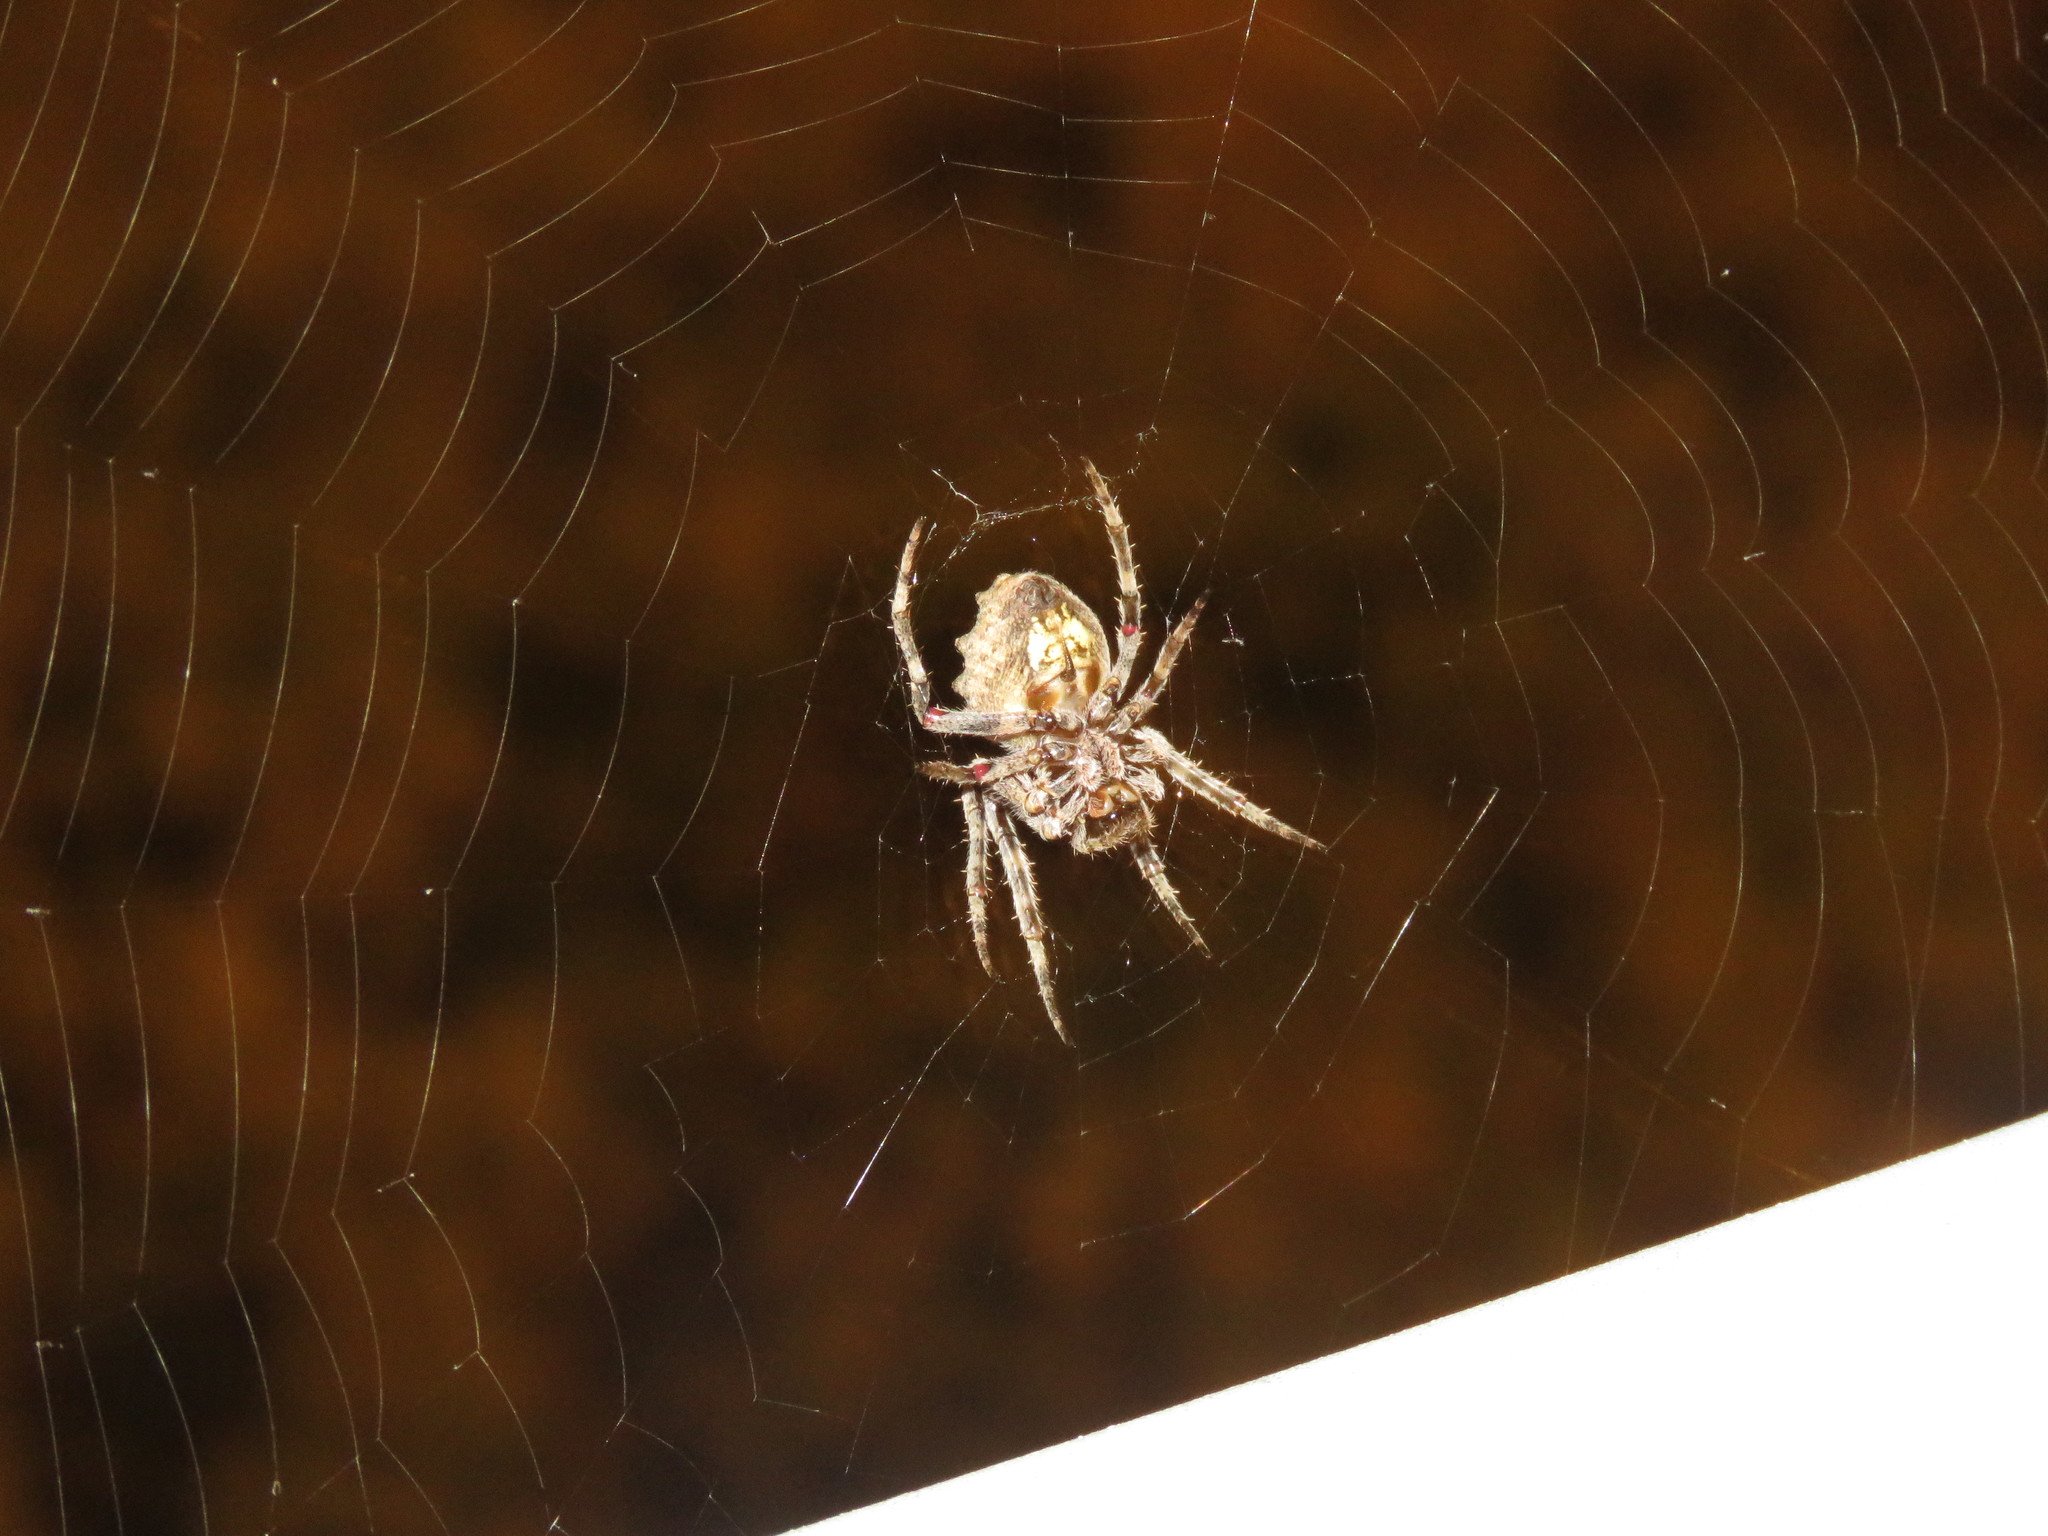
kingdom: Animalia
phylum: Arthropoda
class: Arachnida
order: Araneae
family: Araneidae
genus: Parawixia
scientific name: Parawixia audax
